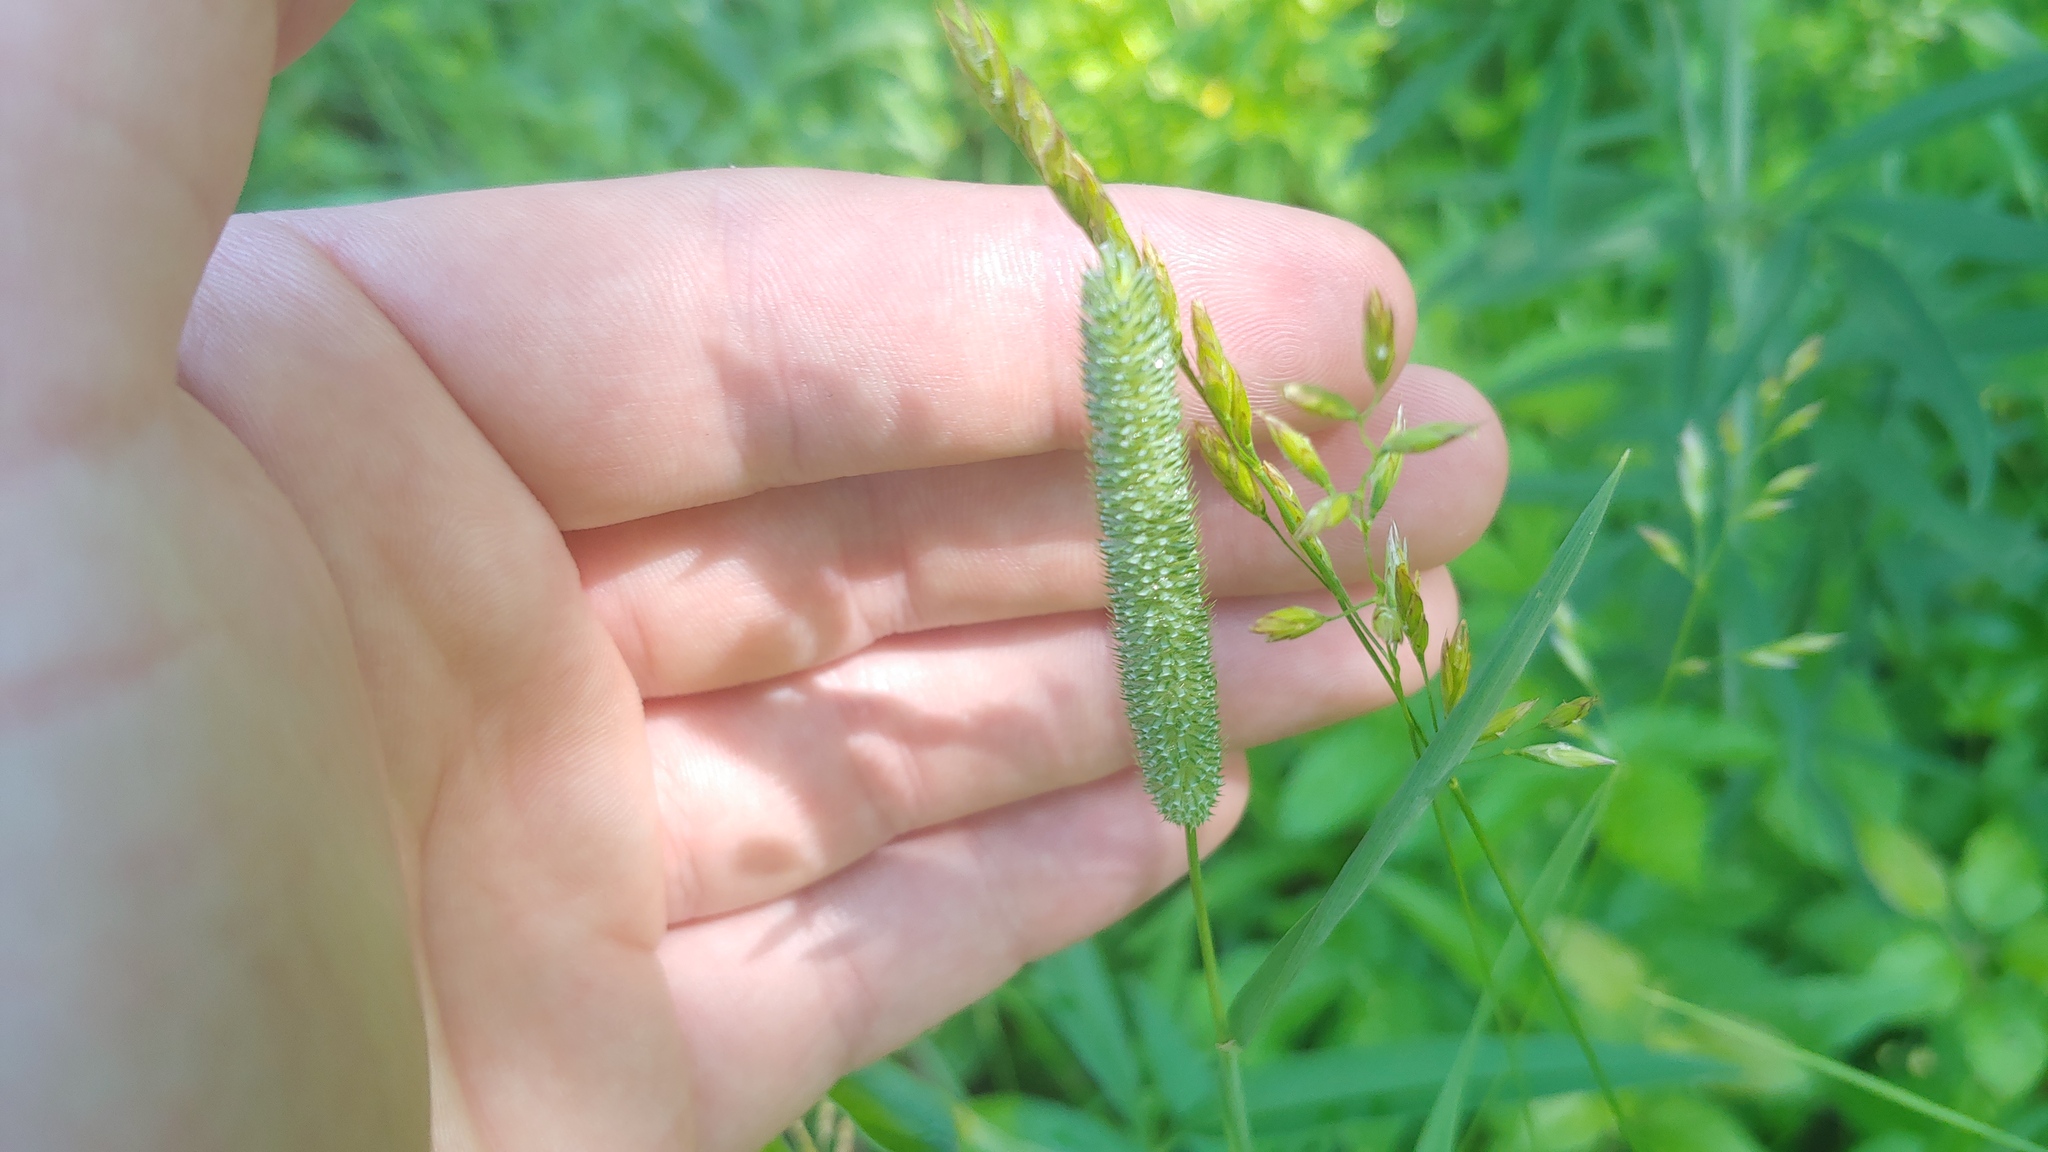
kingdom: Plantae
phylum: Tracheophyta
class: Liliopsida
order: Poales
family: Poaceae
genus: Phleum
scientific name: Phleum pratense
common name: Timothy grass
